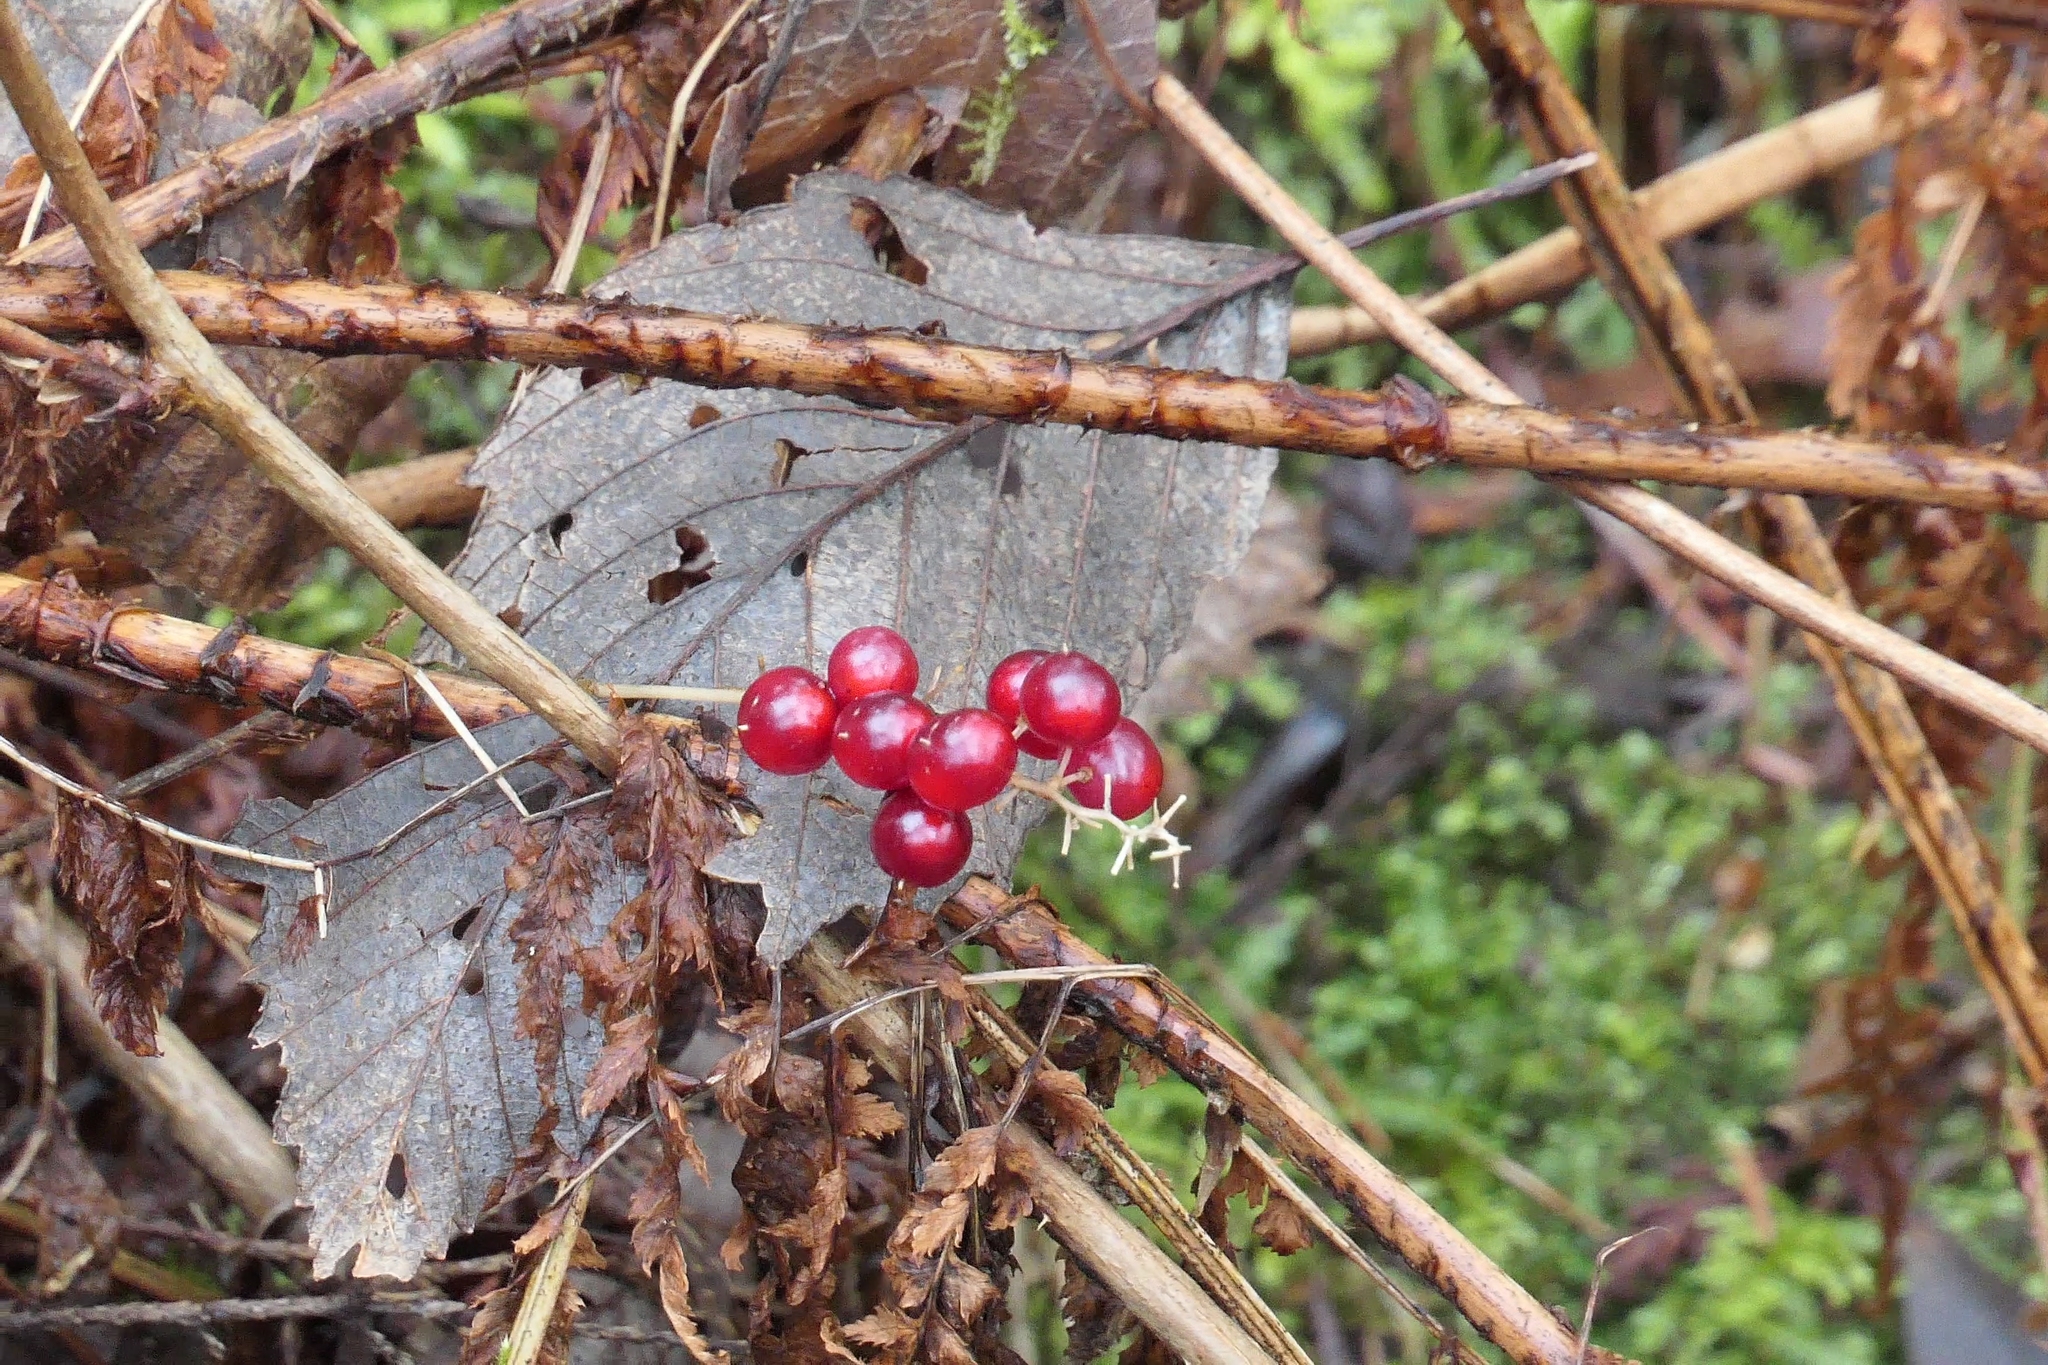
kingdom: Plantae
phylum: Tracheophyta
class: Liliopsida
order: Asparagales
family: Asparagaceae
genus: Maianthemum
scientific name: Maianthemum dilatatum
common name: False lily-of-the-valley
